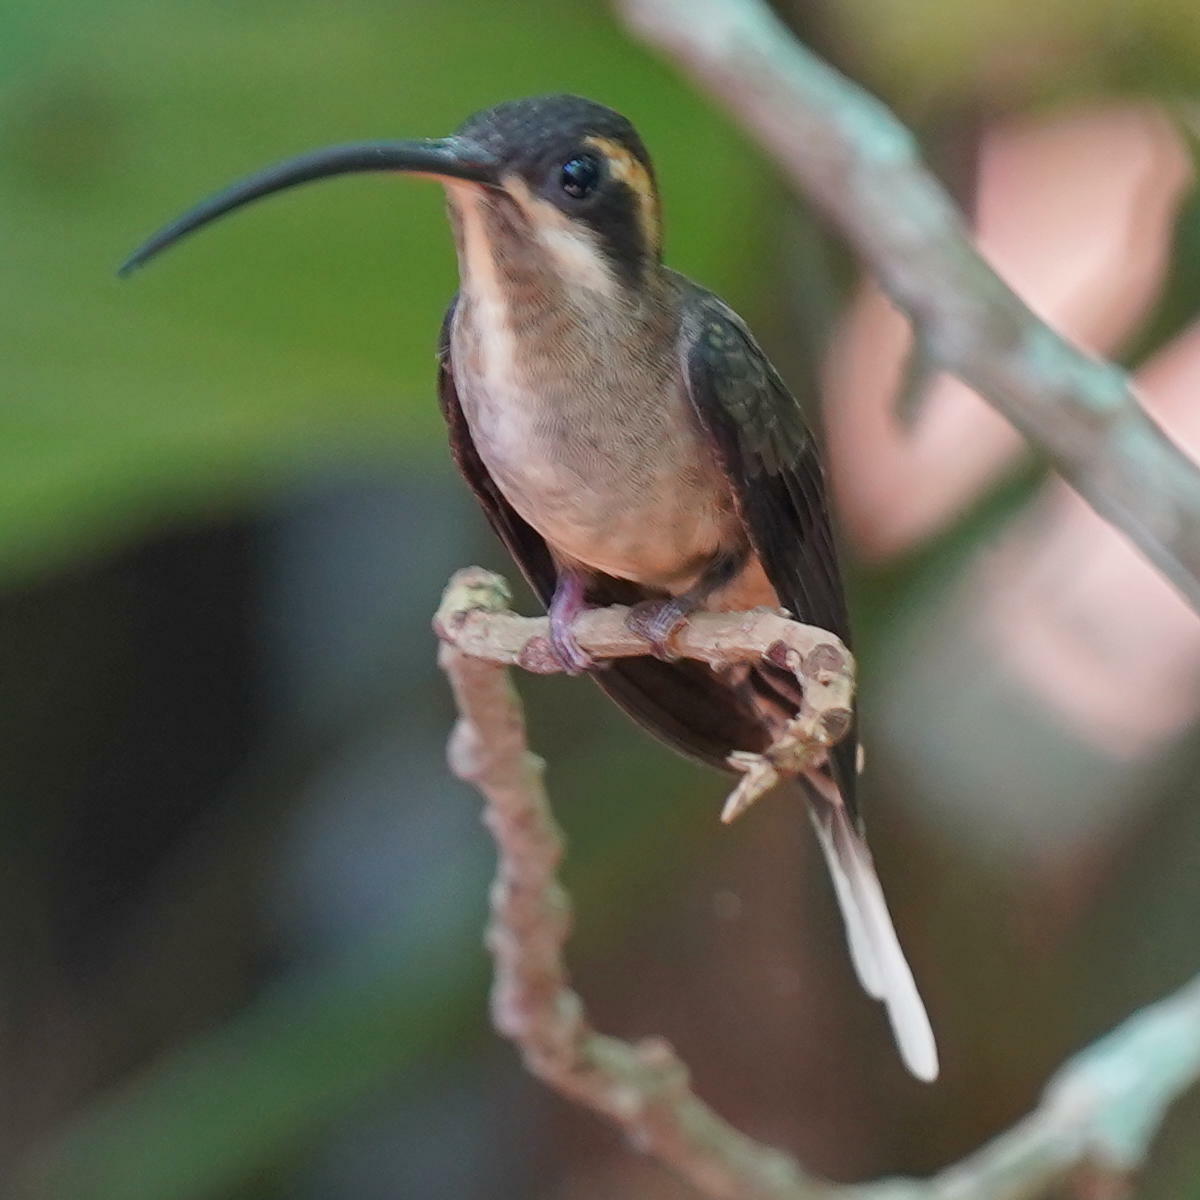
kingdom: Animalia
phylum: Chordata
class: Aves
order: Apodiformes
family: Trochilidae
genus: Phaethornis
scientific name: Phaethornis longirostris
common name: Long-billed hermit
